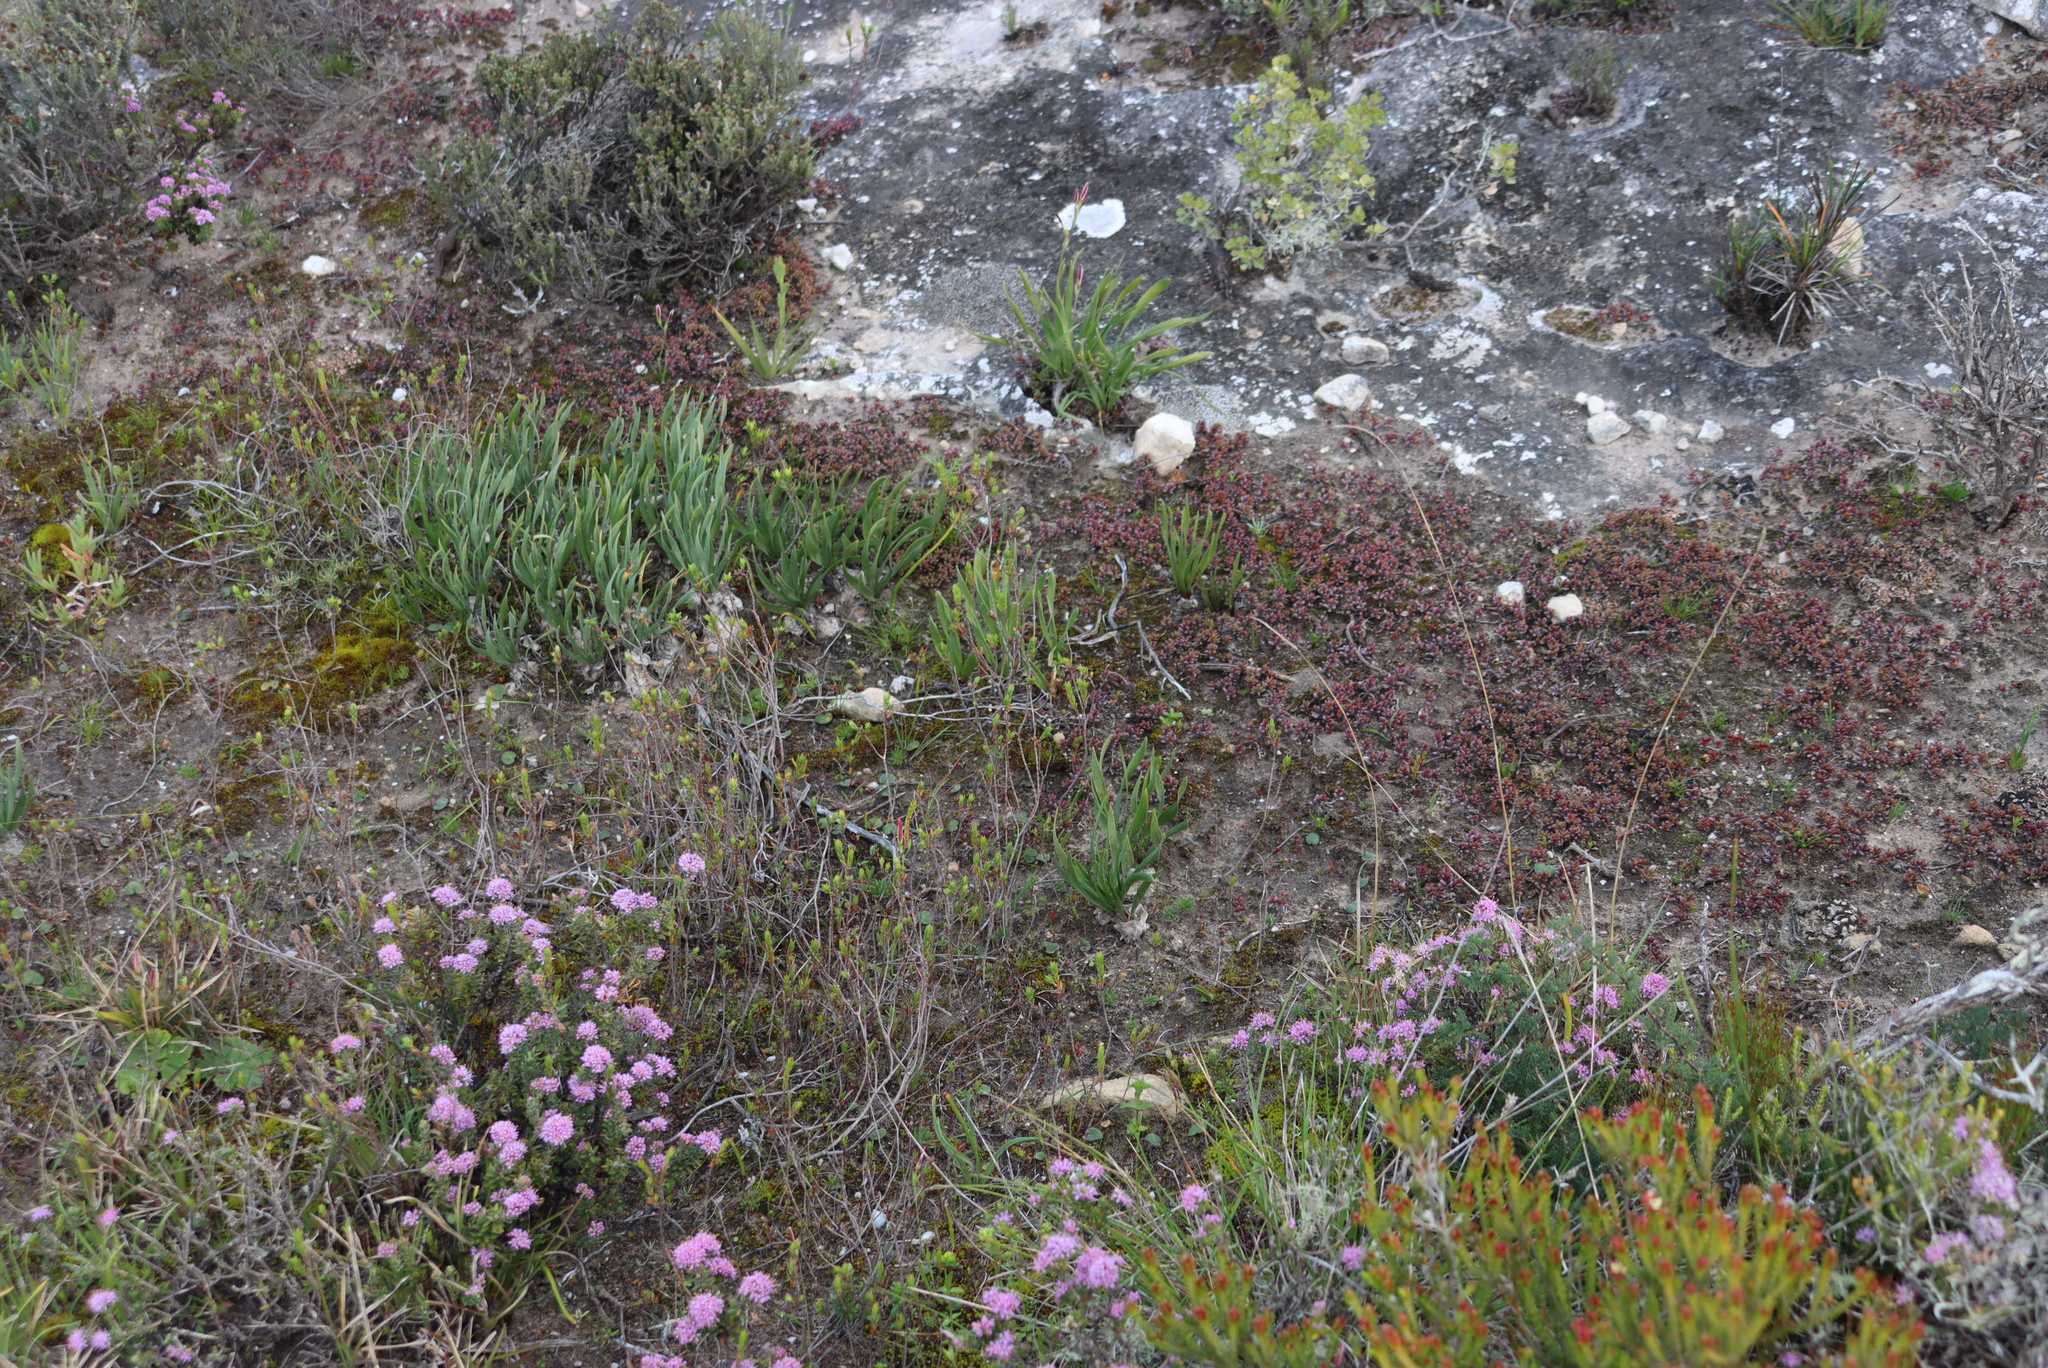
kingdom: Plantae
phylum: Tracheophyta
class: Liliopsida
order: Asparagales
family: Asparagaceae
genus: Fusifilum
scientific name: Fusifilum physodes
